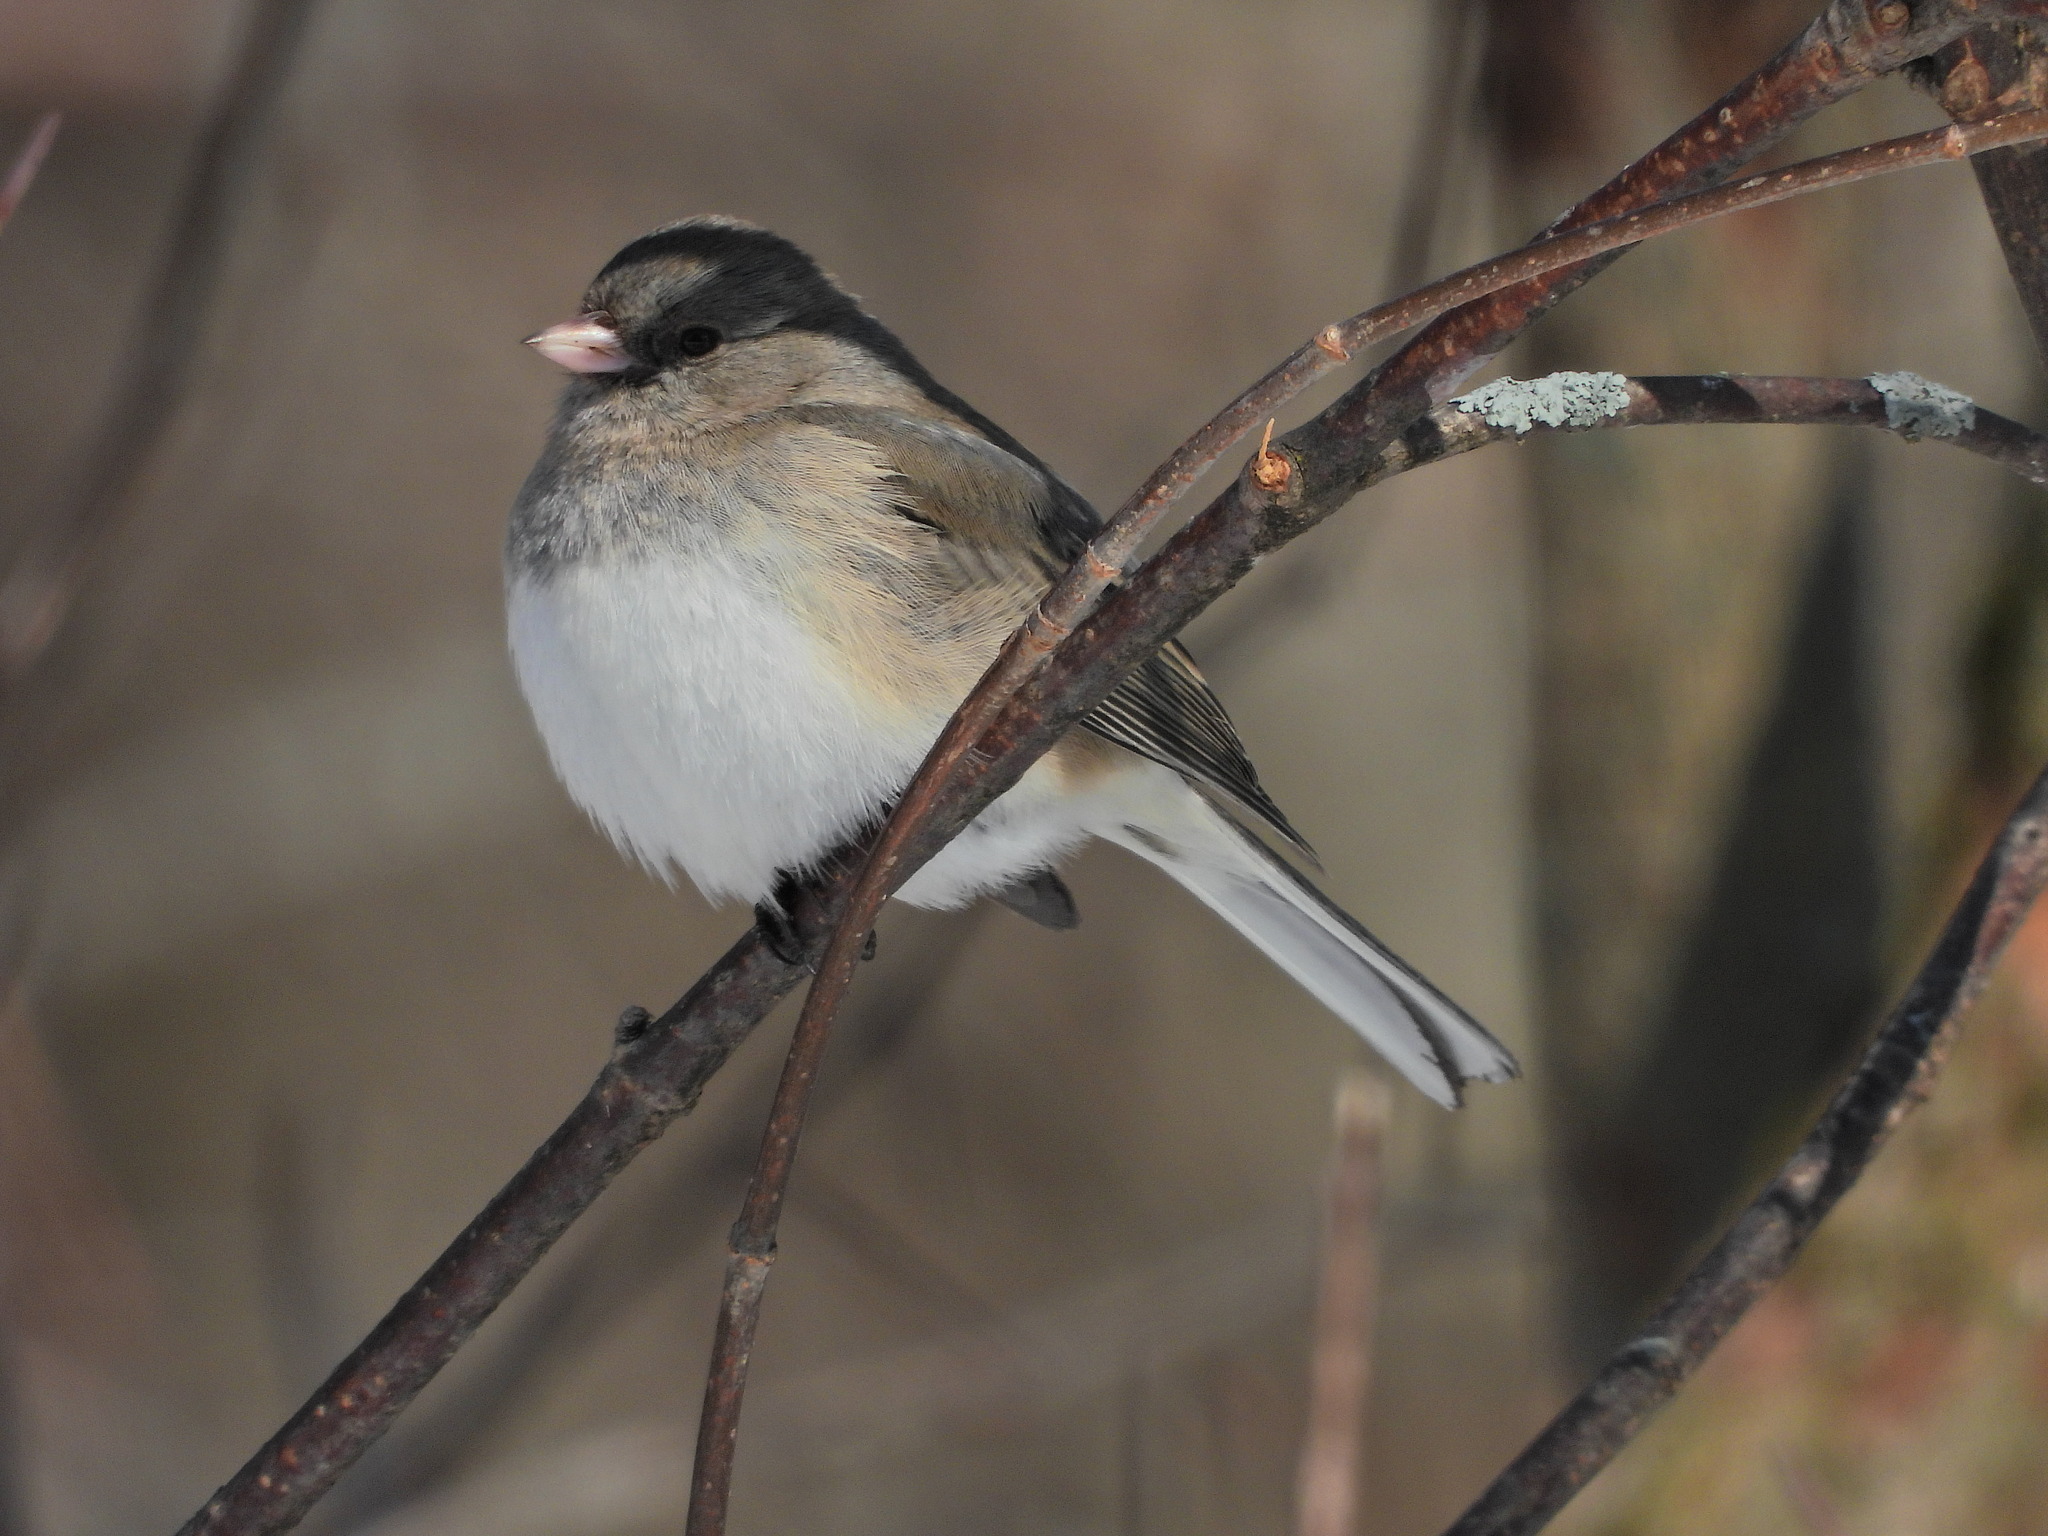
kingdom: Animalia
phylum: Chordata
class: Aves
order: Passeriformes
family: Passerellidae
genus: Junco
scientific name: Junco hyemalis
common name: Dark-eyed junco
